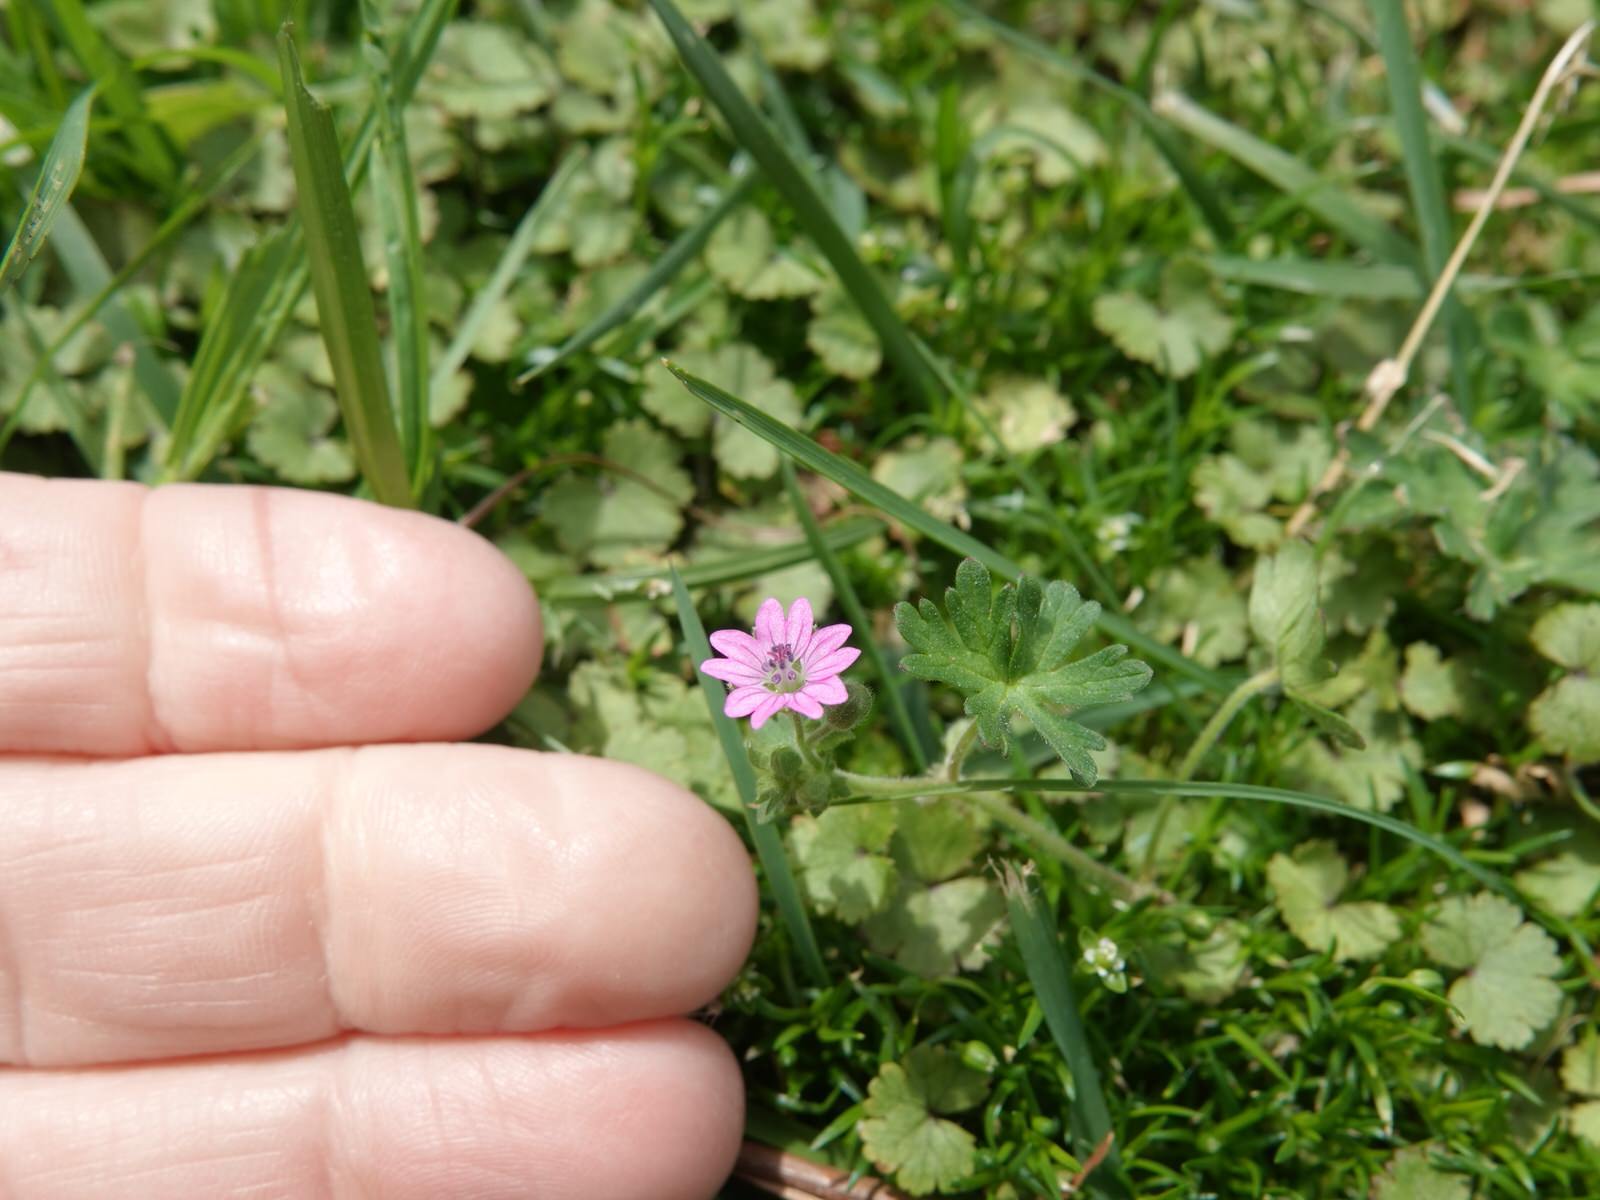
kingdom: Plantae
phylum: Tracheophyta
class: Magnoliopsida
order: Geraniales
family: Geraniaceae
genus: Geranium
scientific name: Geranium molle
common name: Dove's-foot crane's-bill
